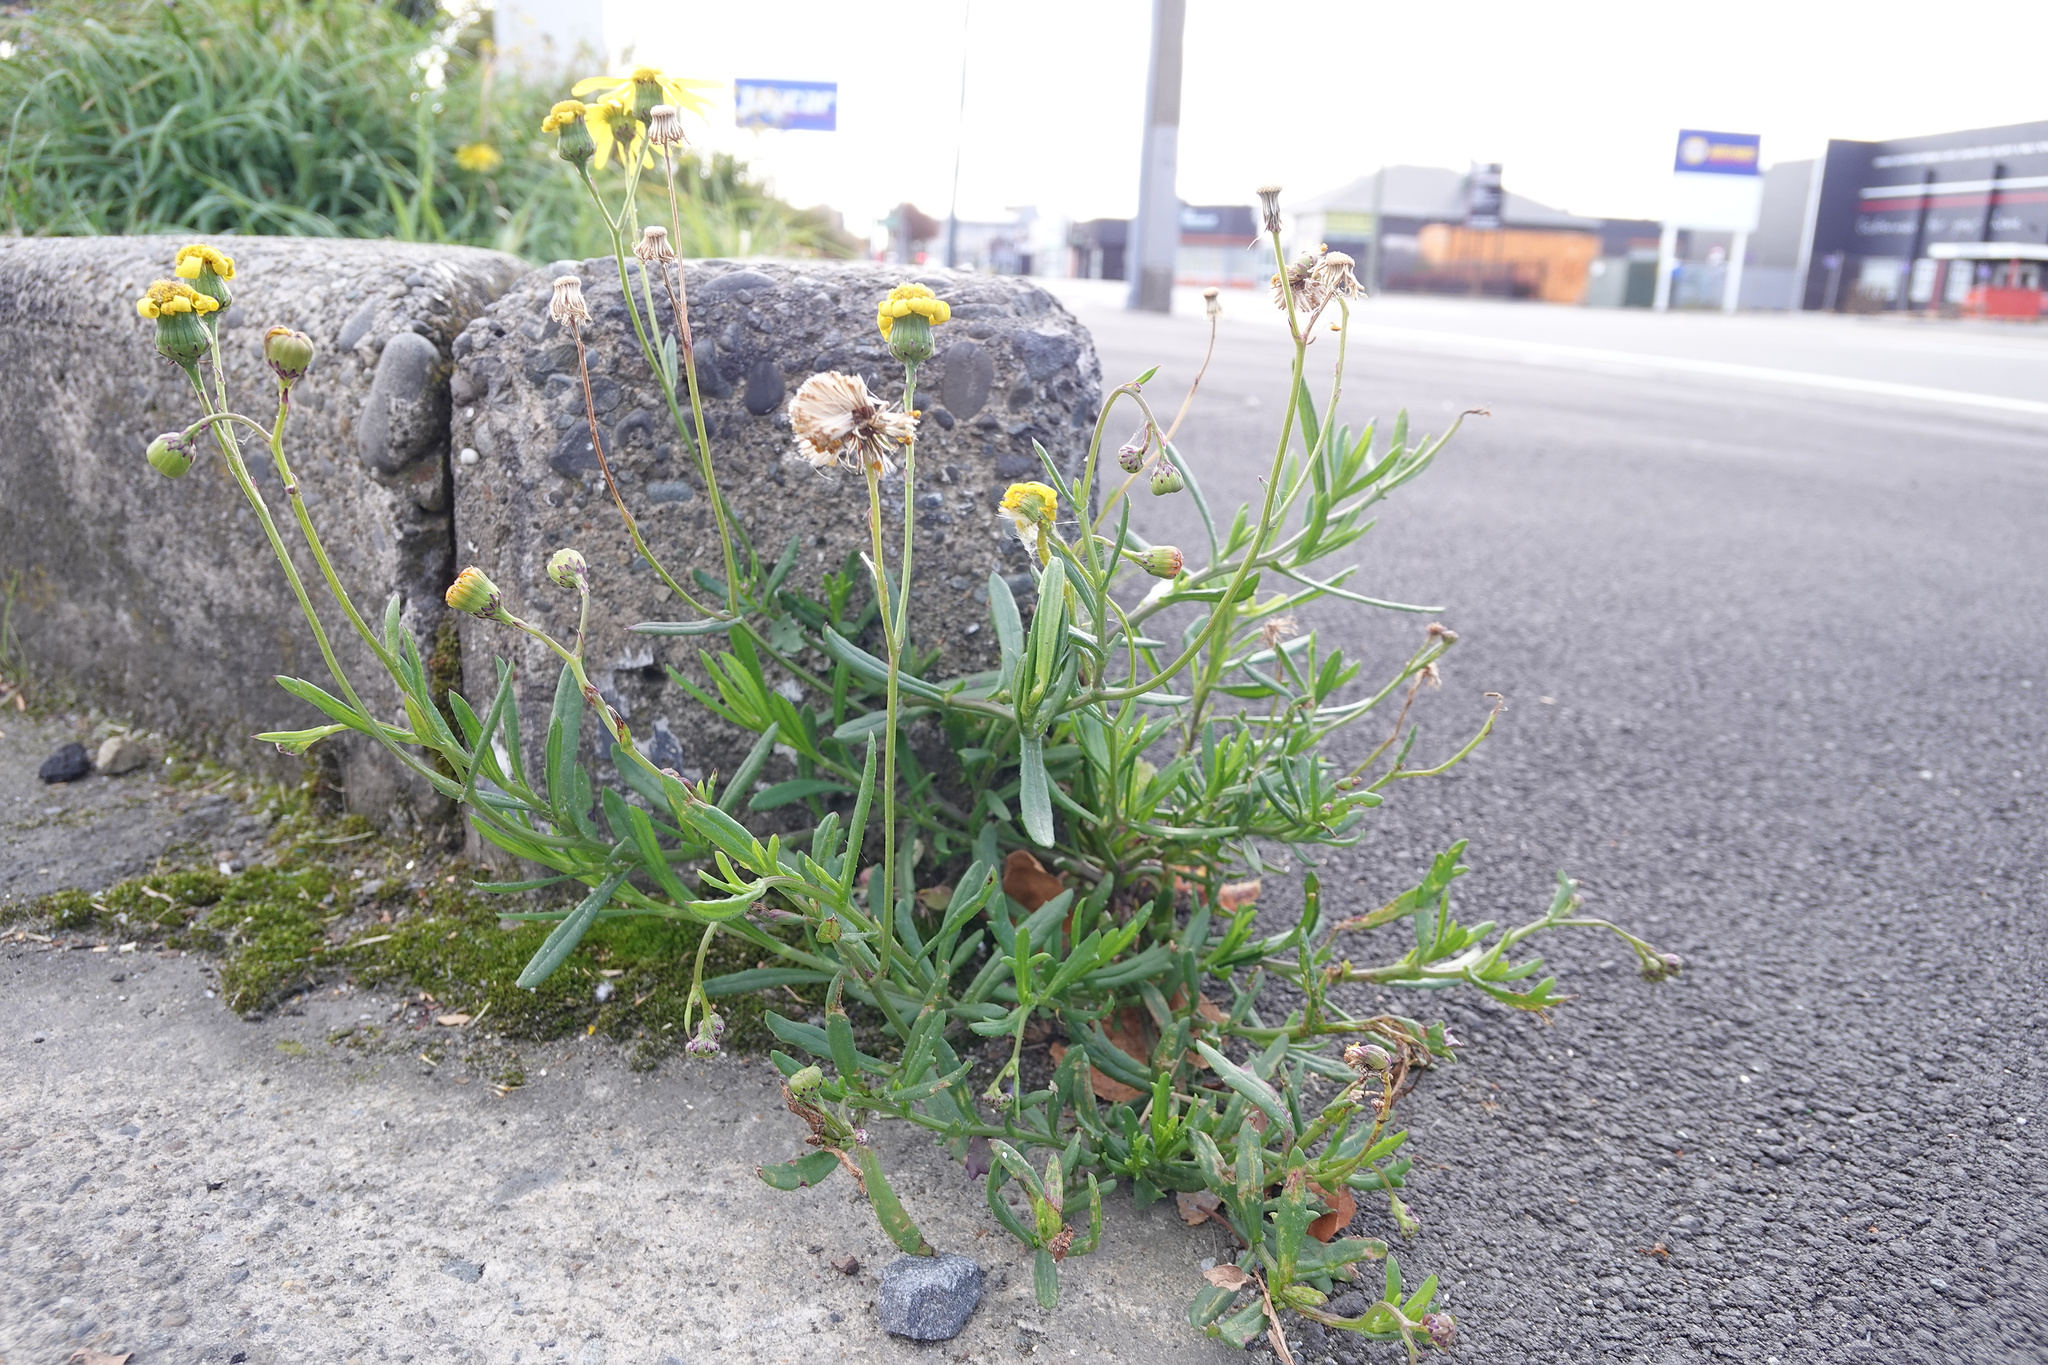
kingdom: Plantae
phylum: Tracheophyta
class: Magnoliopsida
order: Asterales
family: Asteraceae
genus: Senecio
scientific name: Senecio skirrhodon
